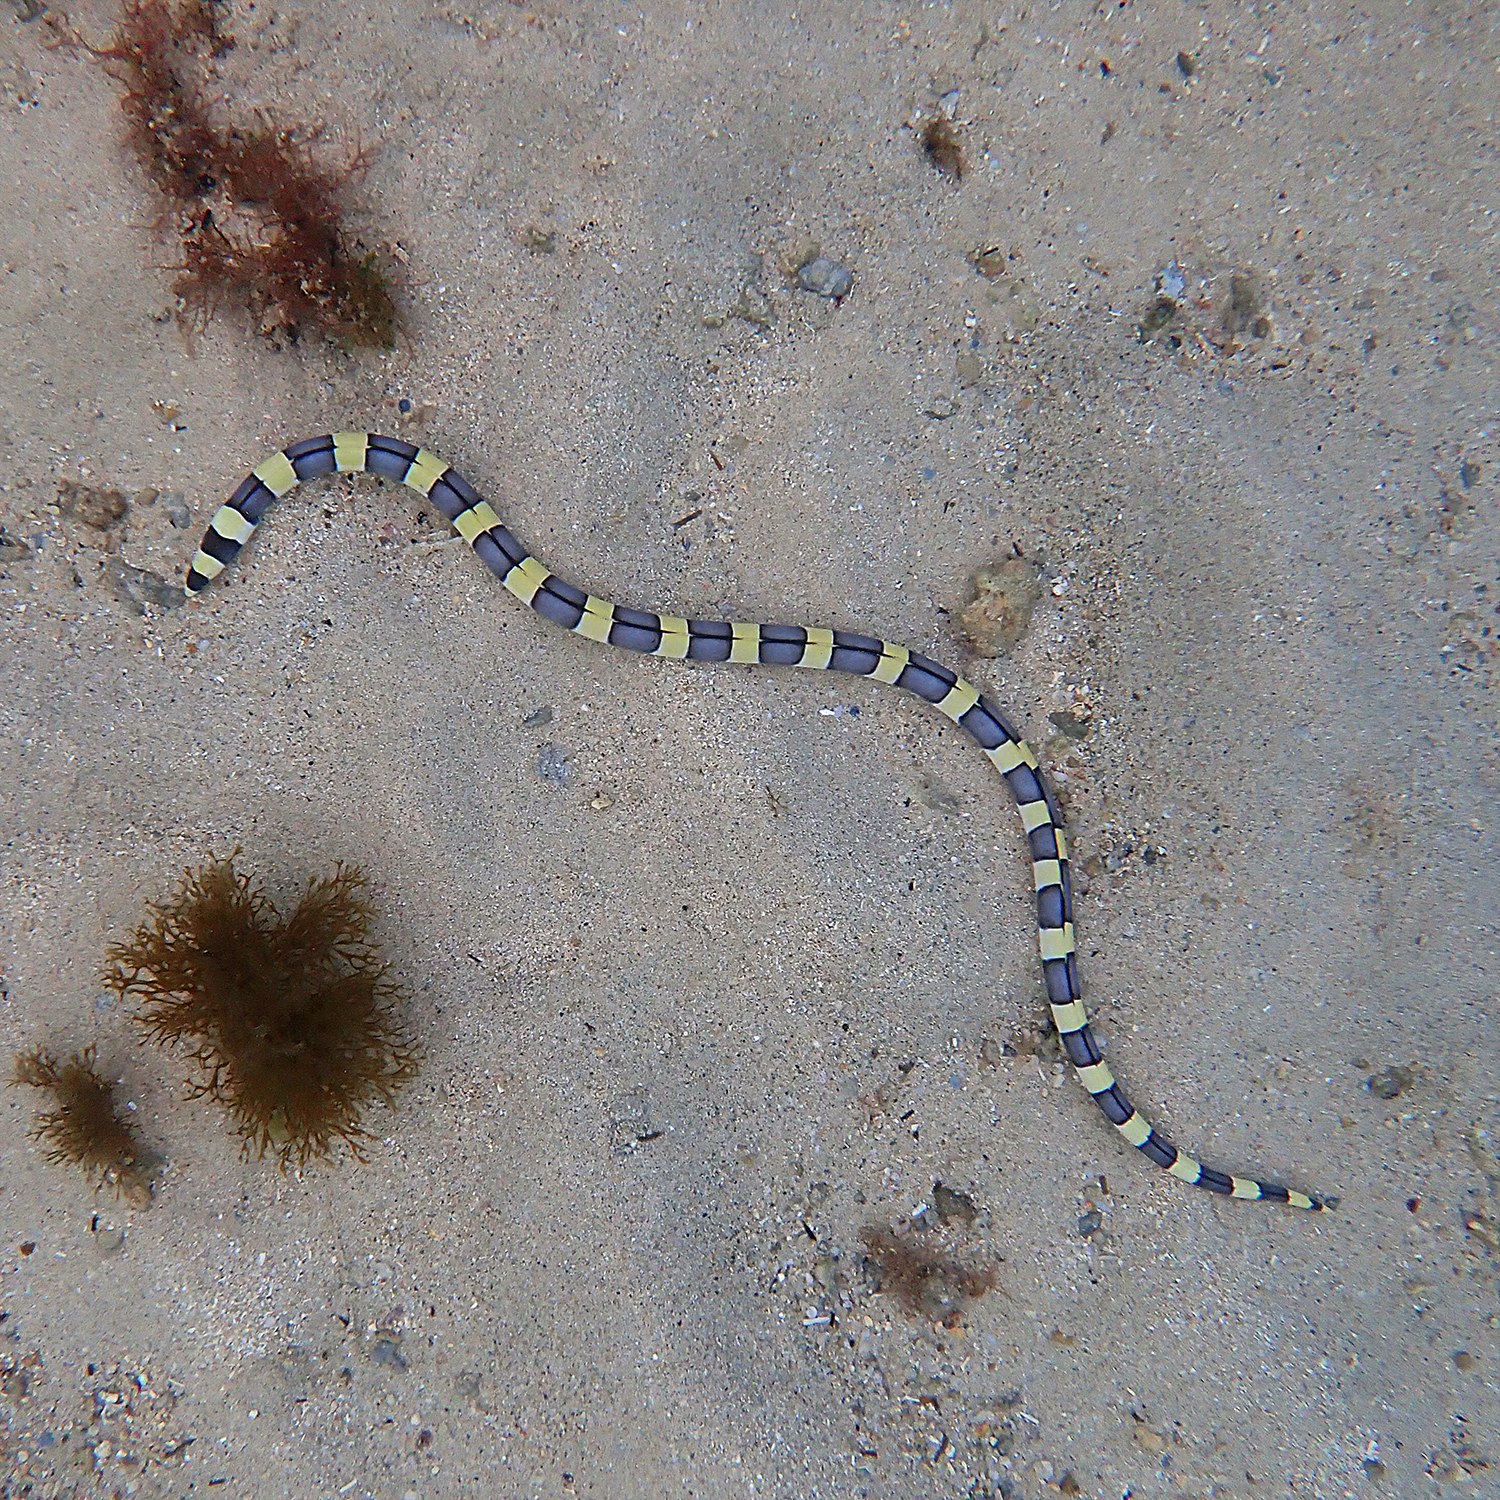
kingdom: Animalia
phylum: Chordata
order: Anguilliformes
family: Ophichthidae
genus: Leiuranus
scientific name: Leiuranus semicinctus
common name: Saddled snake eel
